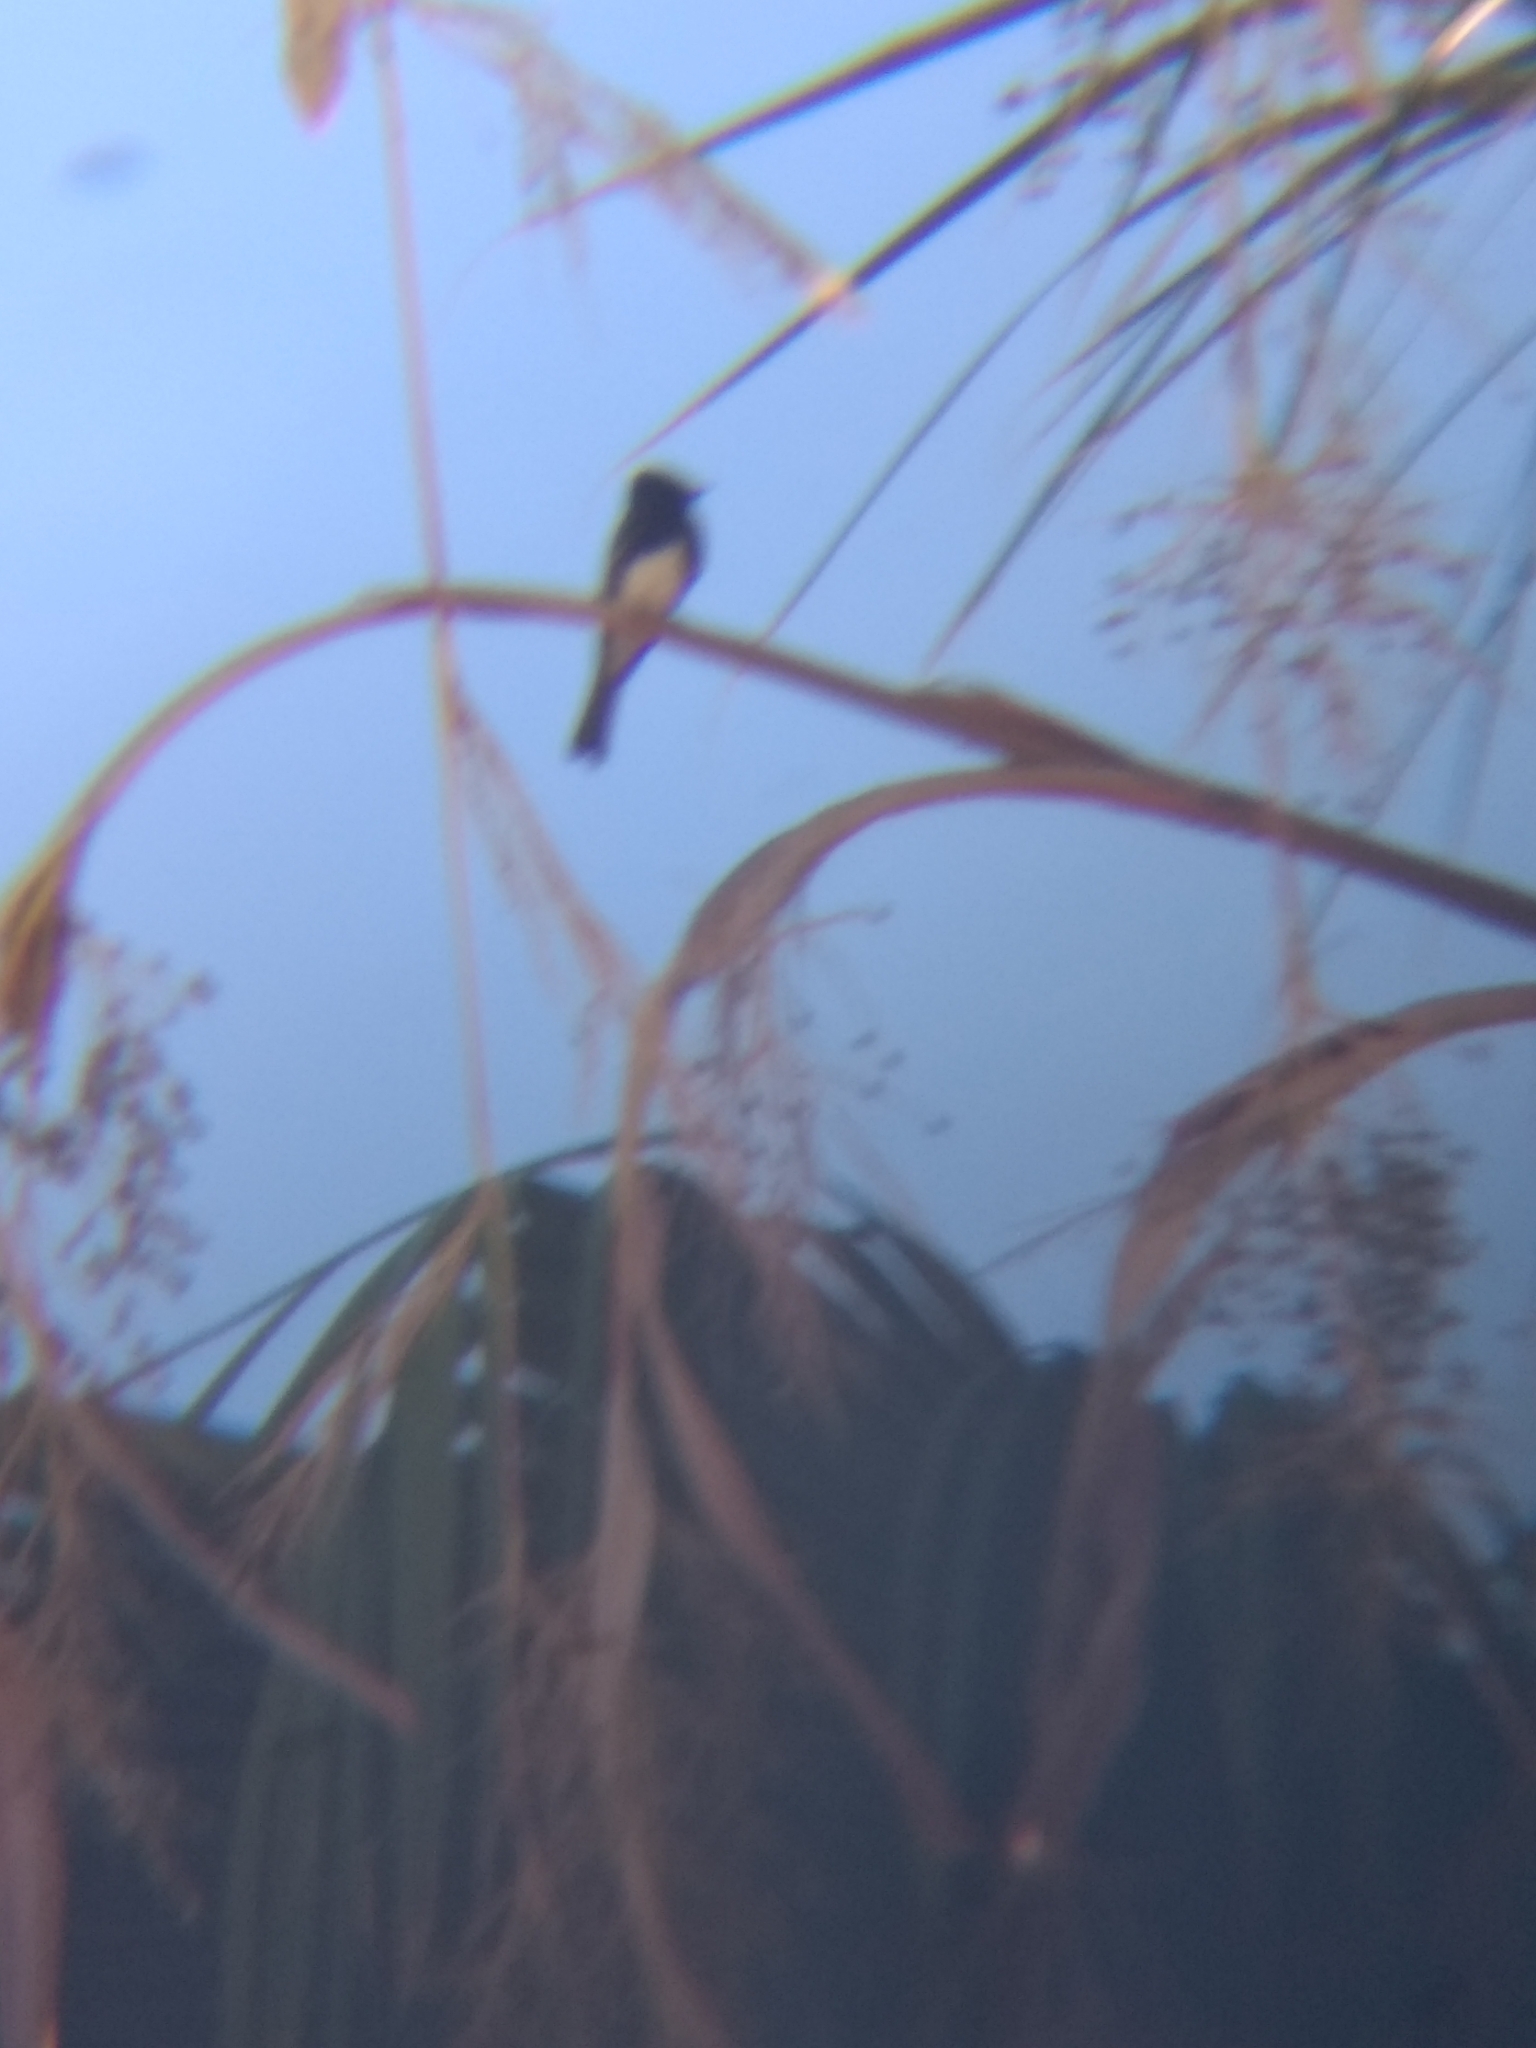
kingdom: Animalia
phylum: Chordata
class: Aves
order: Passeriformes
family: Tyrannidae
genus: Sayornis
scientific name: Sayornis nigricans
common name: Black phoebe
